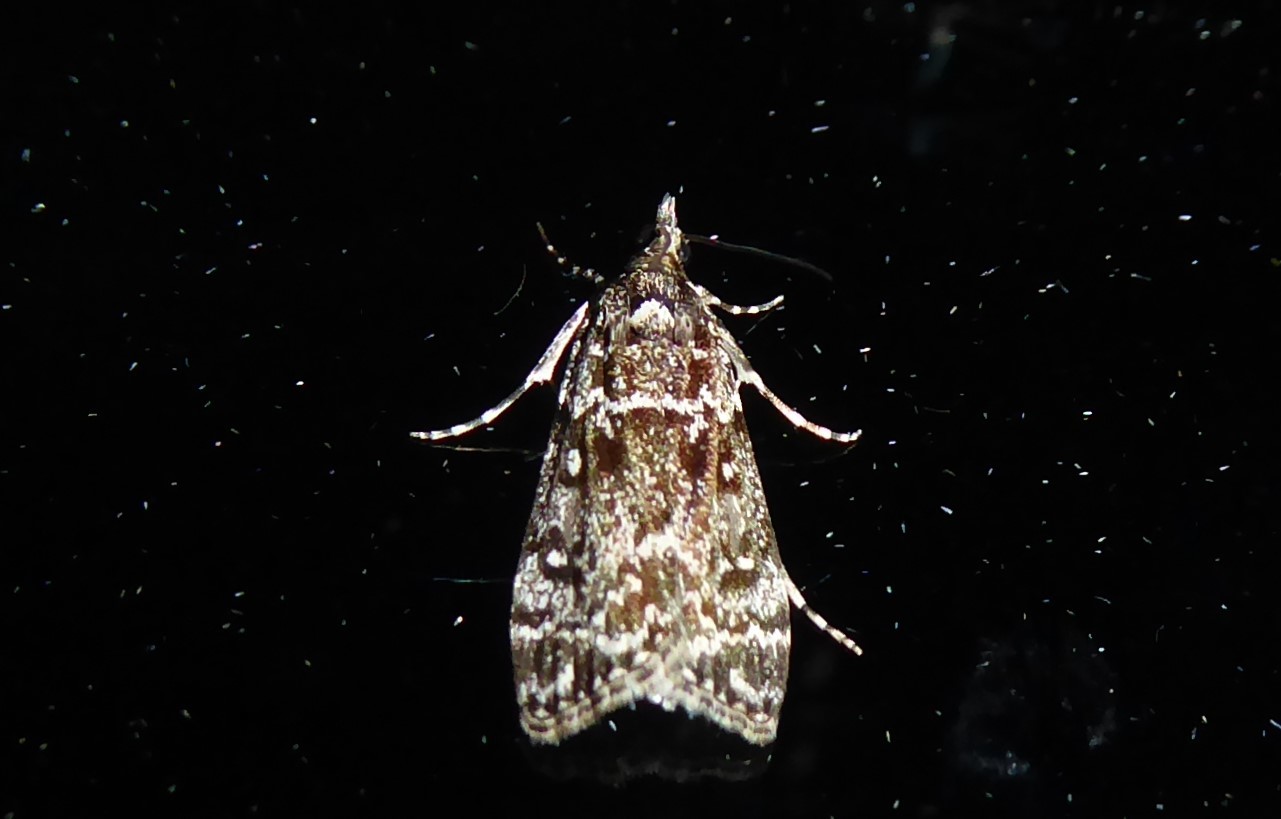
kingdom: Animalia
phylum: Arthropoda
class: Insecta
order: Lepidoptera
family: Crambidae
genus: Eudonia
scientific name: Eudonia philerga
